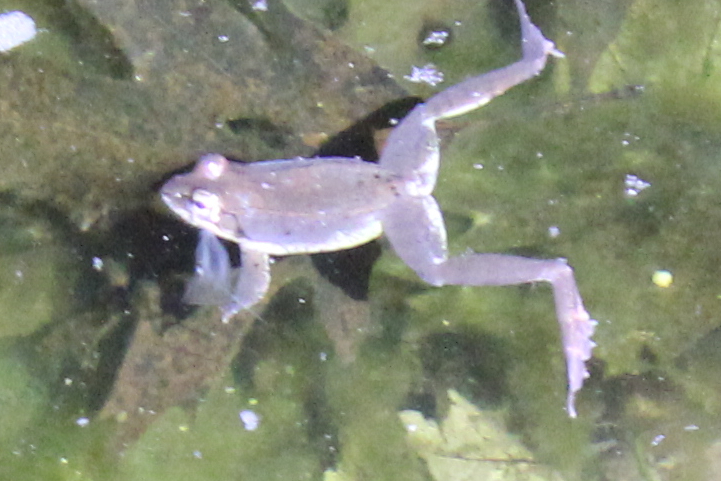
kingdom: Animalia
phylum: Chordata
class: Amphibia
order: Anura
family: Ranidae
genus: Lithobates
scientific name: Lithobates sylvaticus
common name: Wood frog
